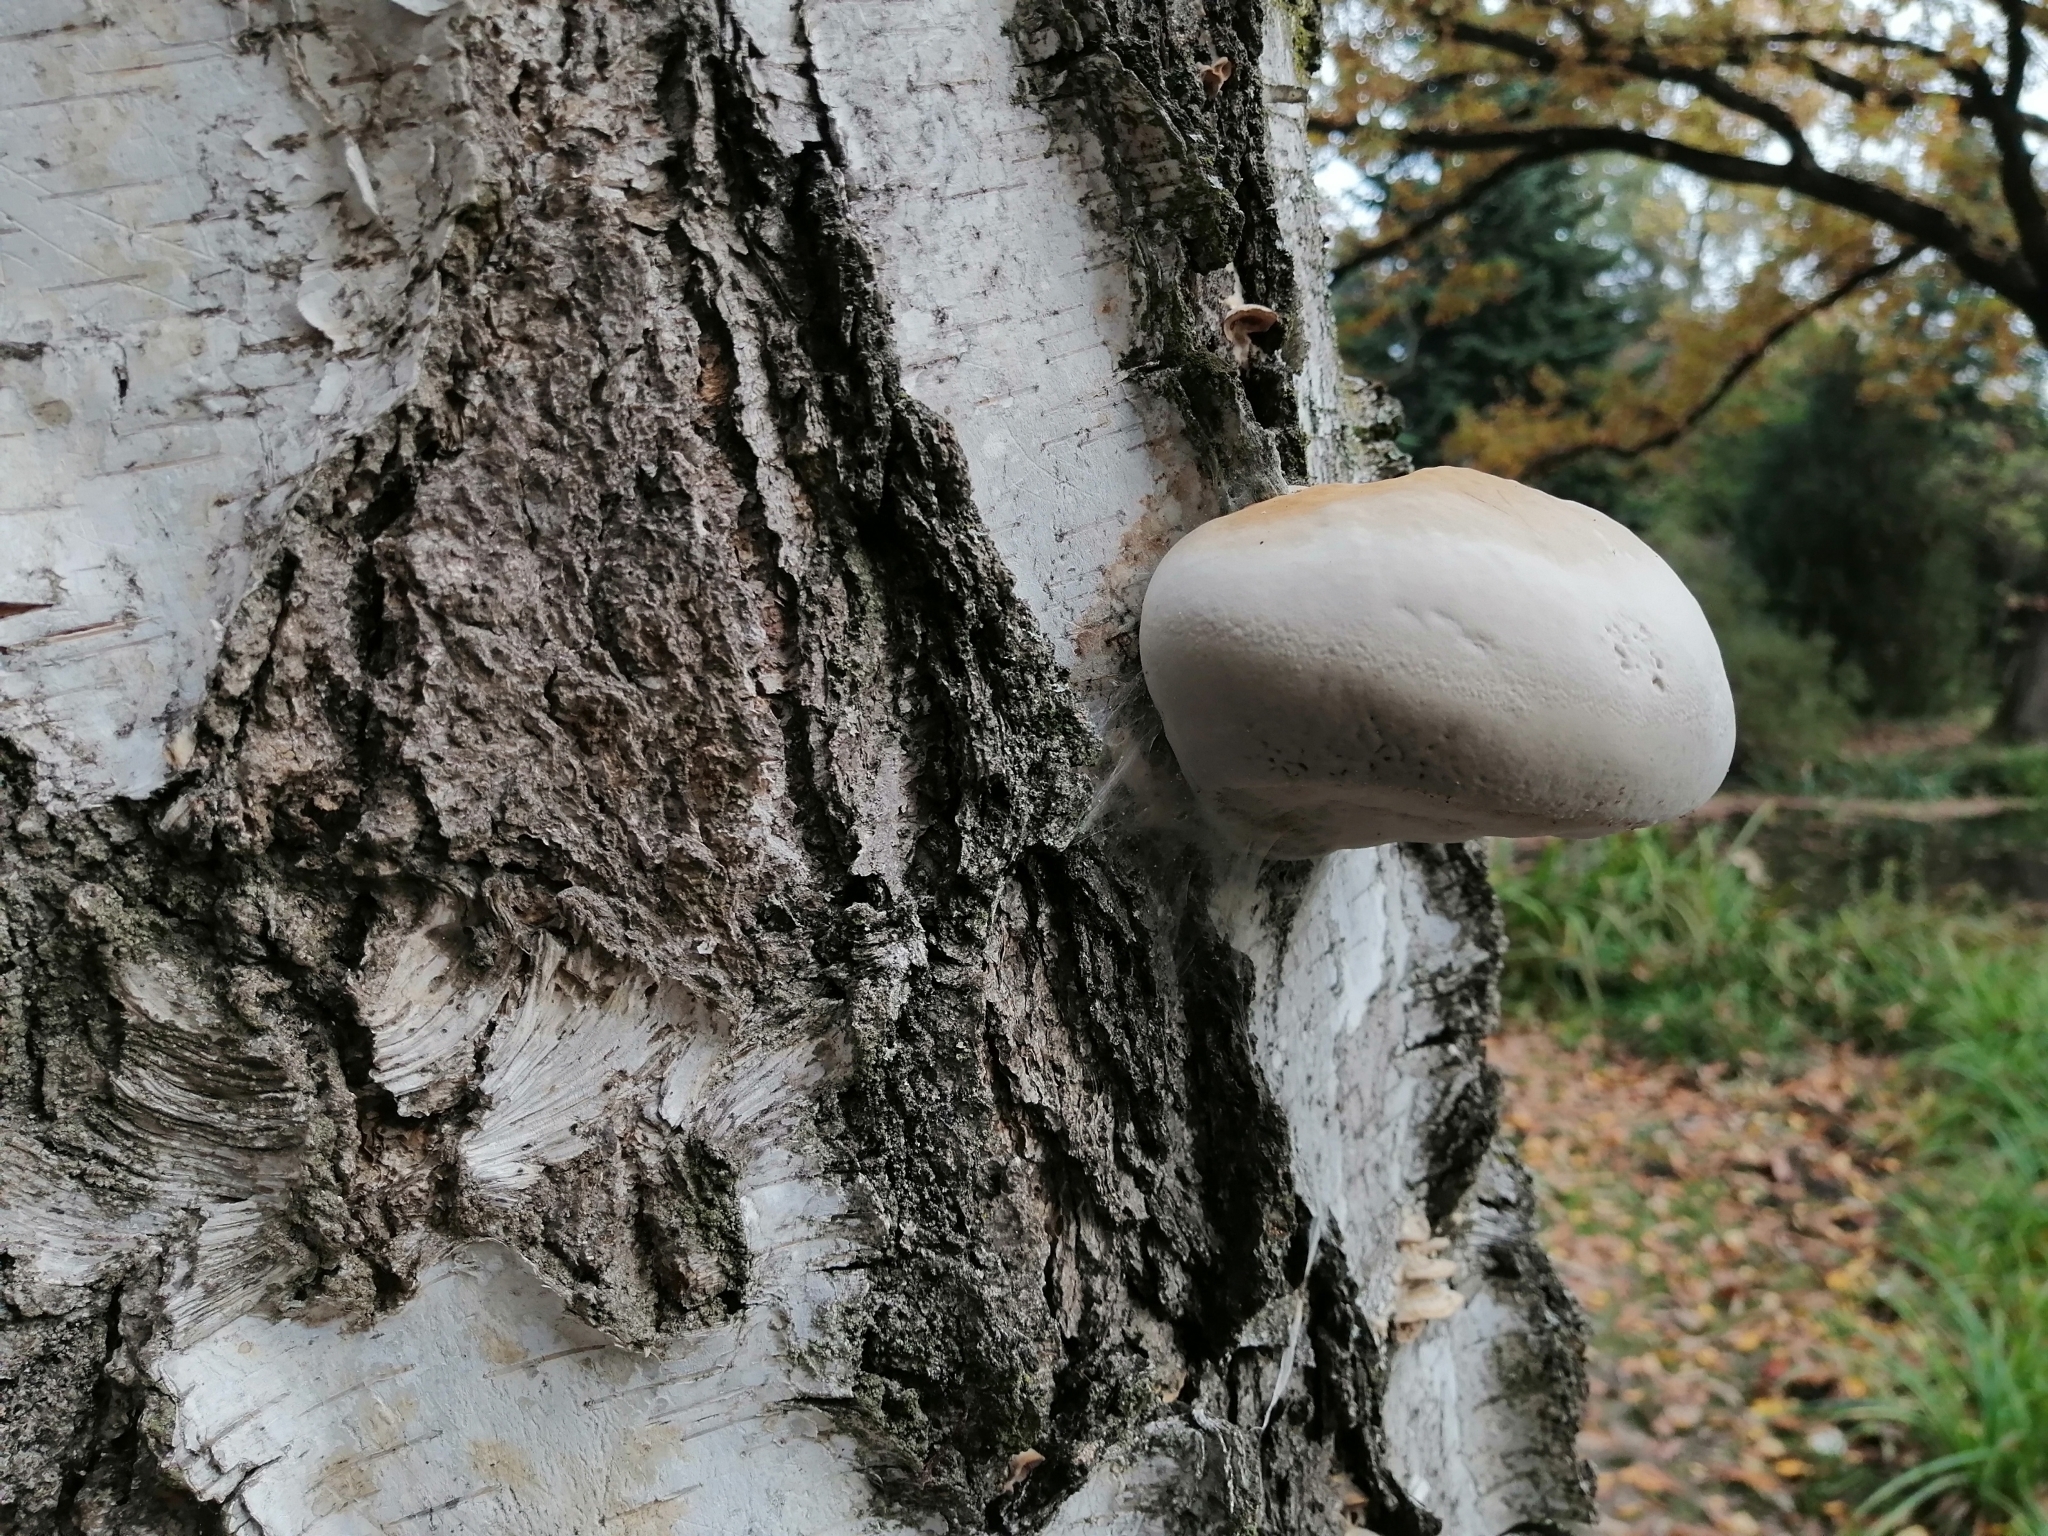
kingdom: Fungi
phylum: Basidiomycota
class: Agaricomycetes
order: Polyporales
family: Fomitopsidaceae
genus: Fomitopsis
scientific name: Fomitopsis betulina
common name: Birch polypore
